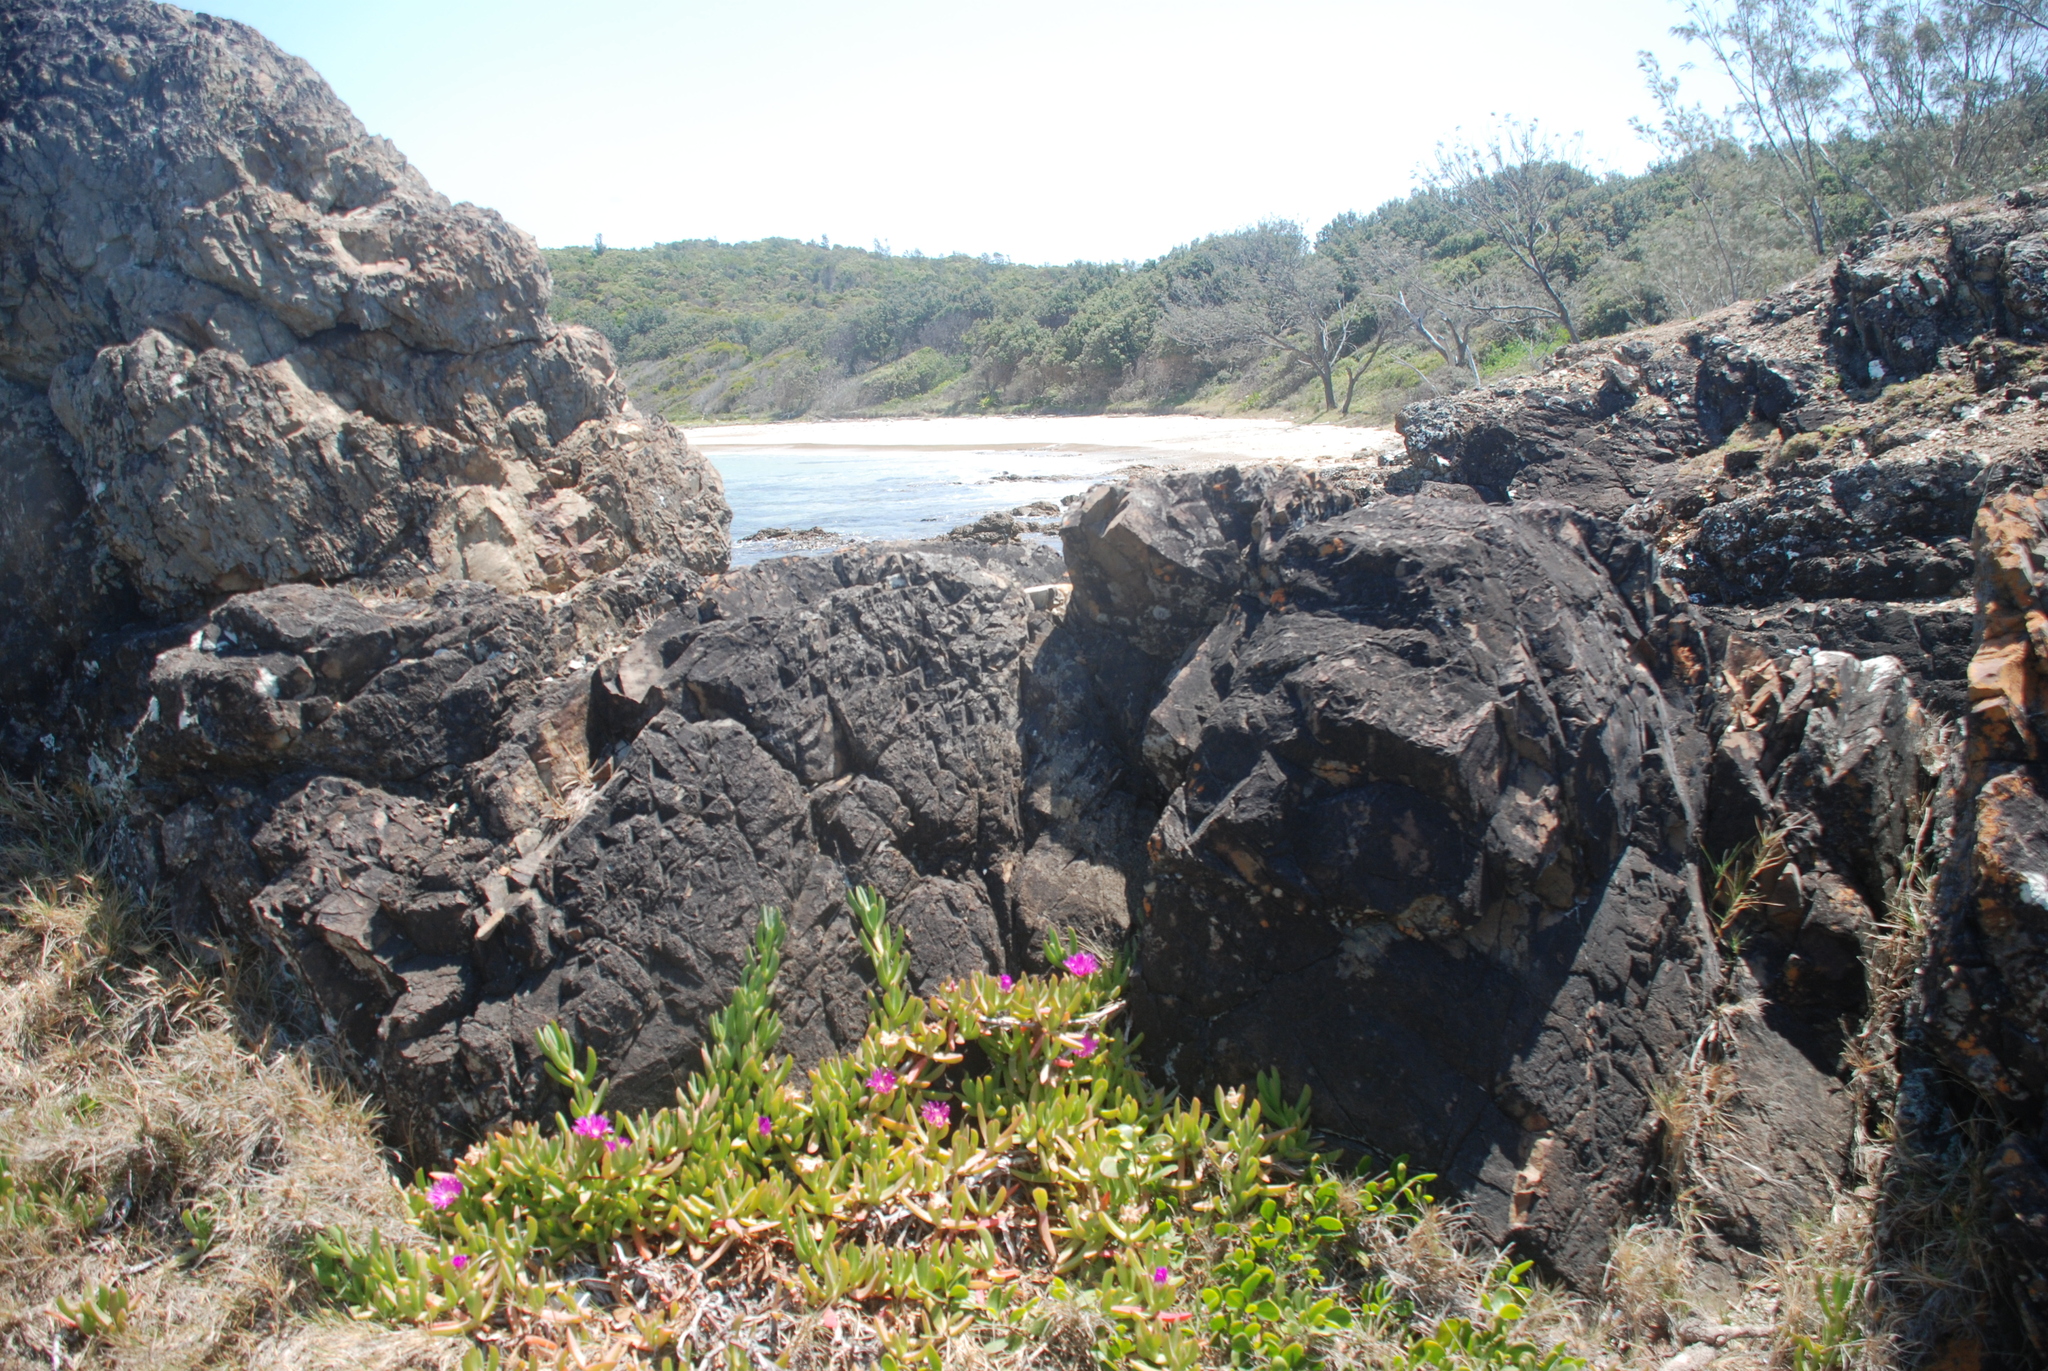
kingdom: Plantae
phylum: Tracheophyta
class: Magnoliopsida
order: Caryophyllales
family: Aizoaceae
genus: Carpobrotus
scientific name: Carpobrotus glaucescens
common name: Angular sea-fig
